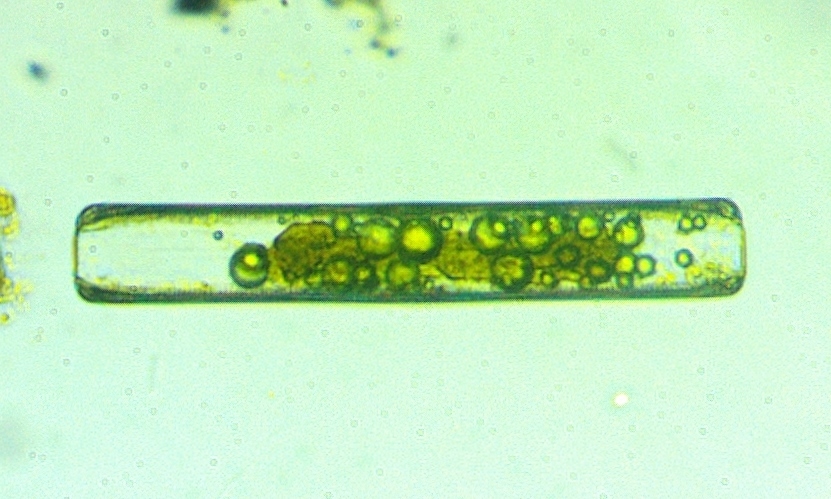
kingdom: Chromista
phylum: Ochrophyta
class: Bacillariophyceae
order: Naviculales
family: Pinnulariaceae
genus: Pinnularia
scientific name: Pinnularia
